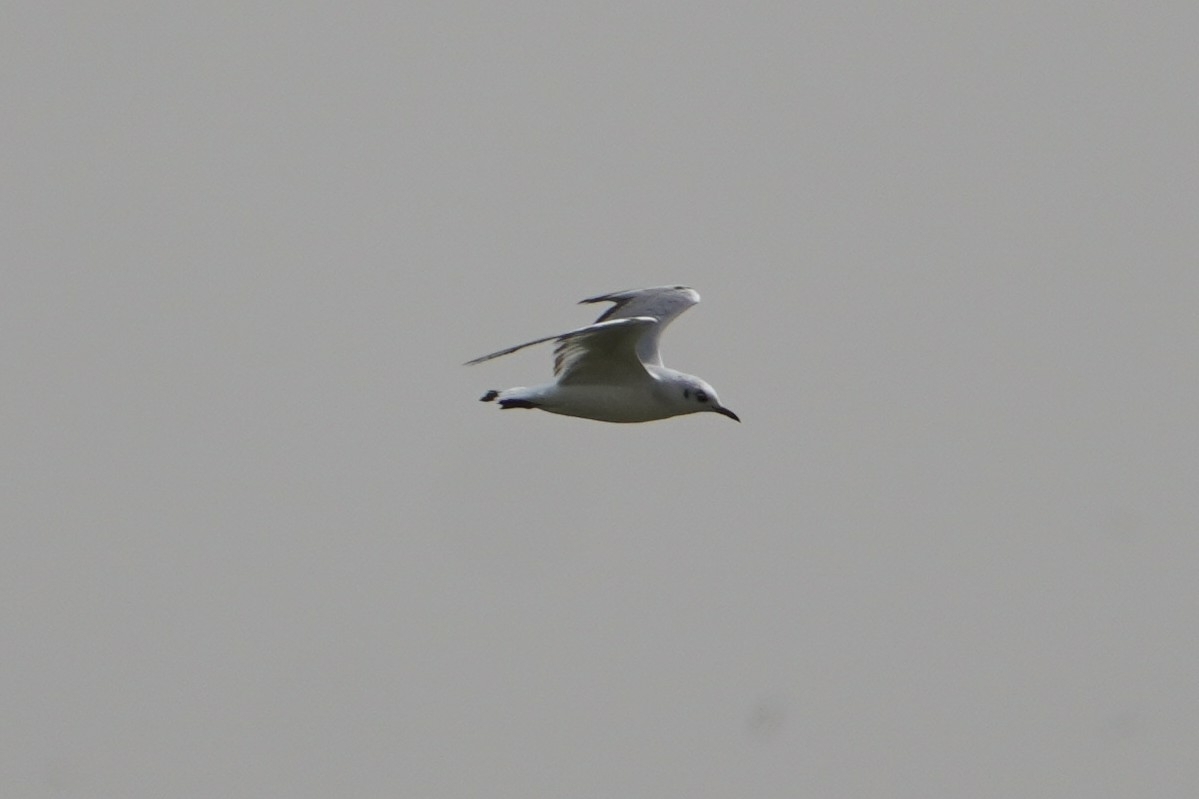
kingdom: Animalia
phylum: Chordata
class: Aves
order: Charadriiformes
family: Laridae
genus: Chroicocephalus
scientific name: Chroicocephalus ridibundus
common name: Black-headed gull
